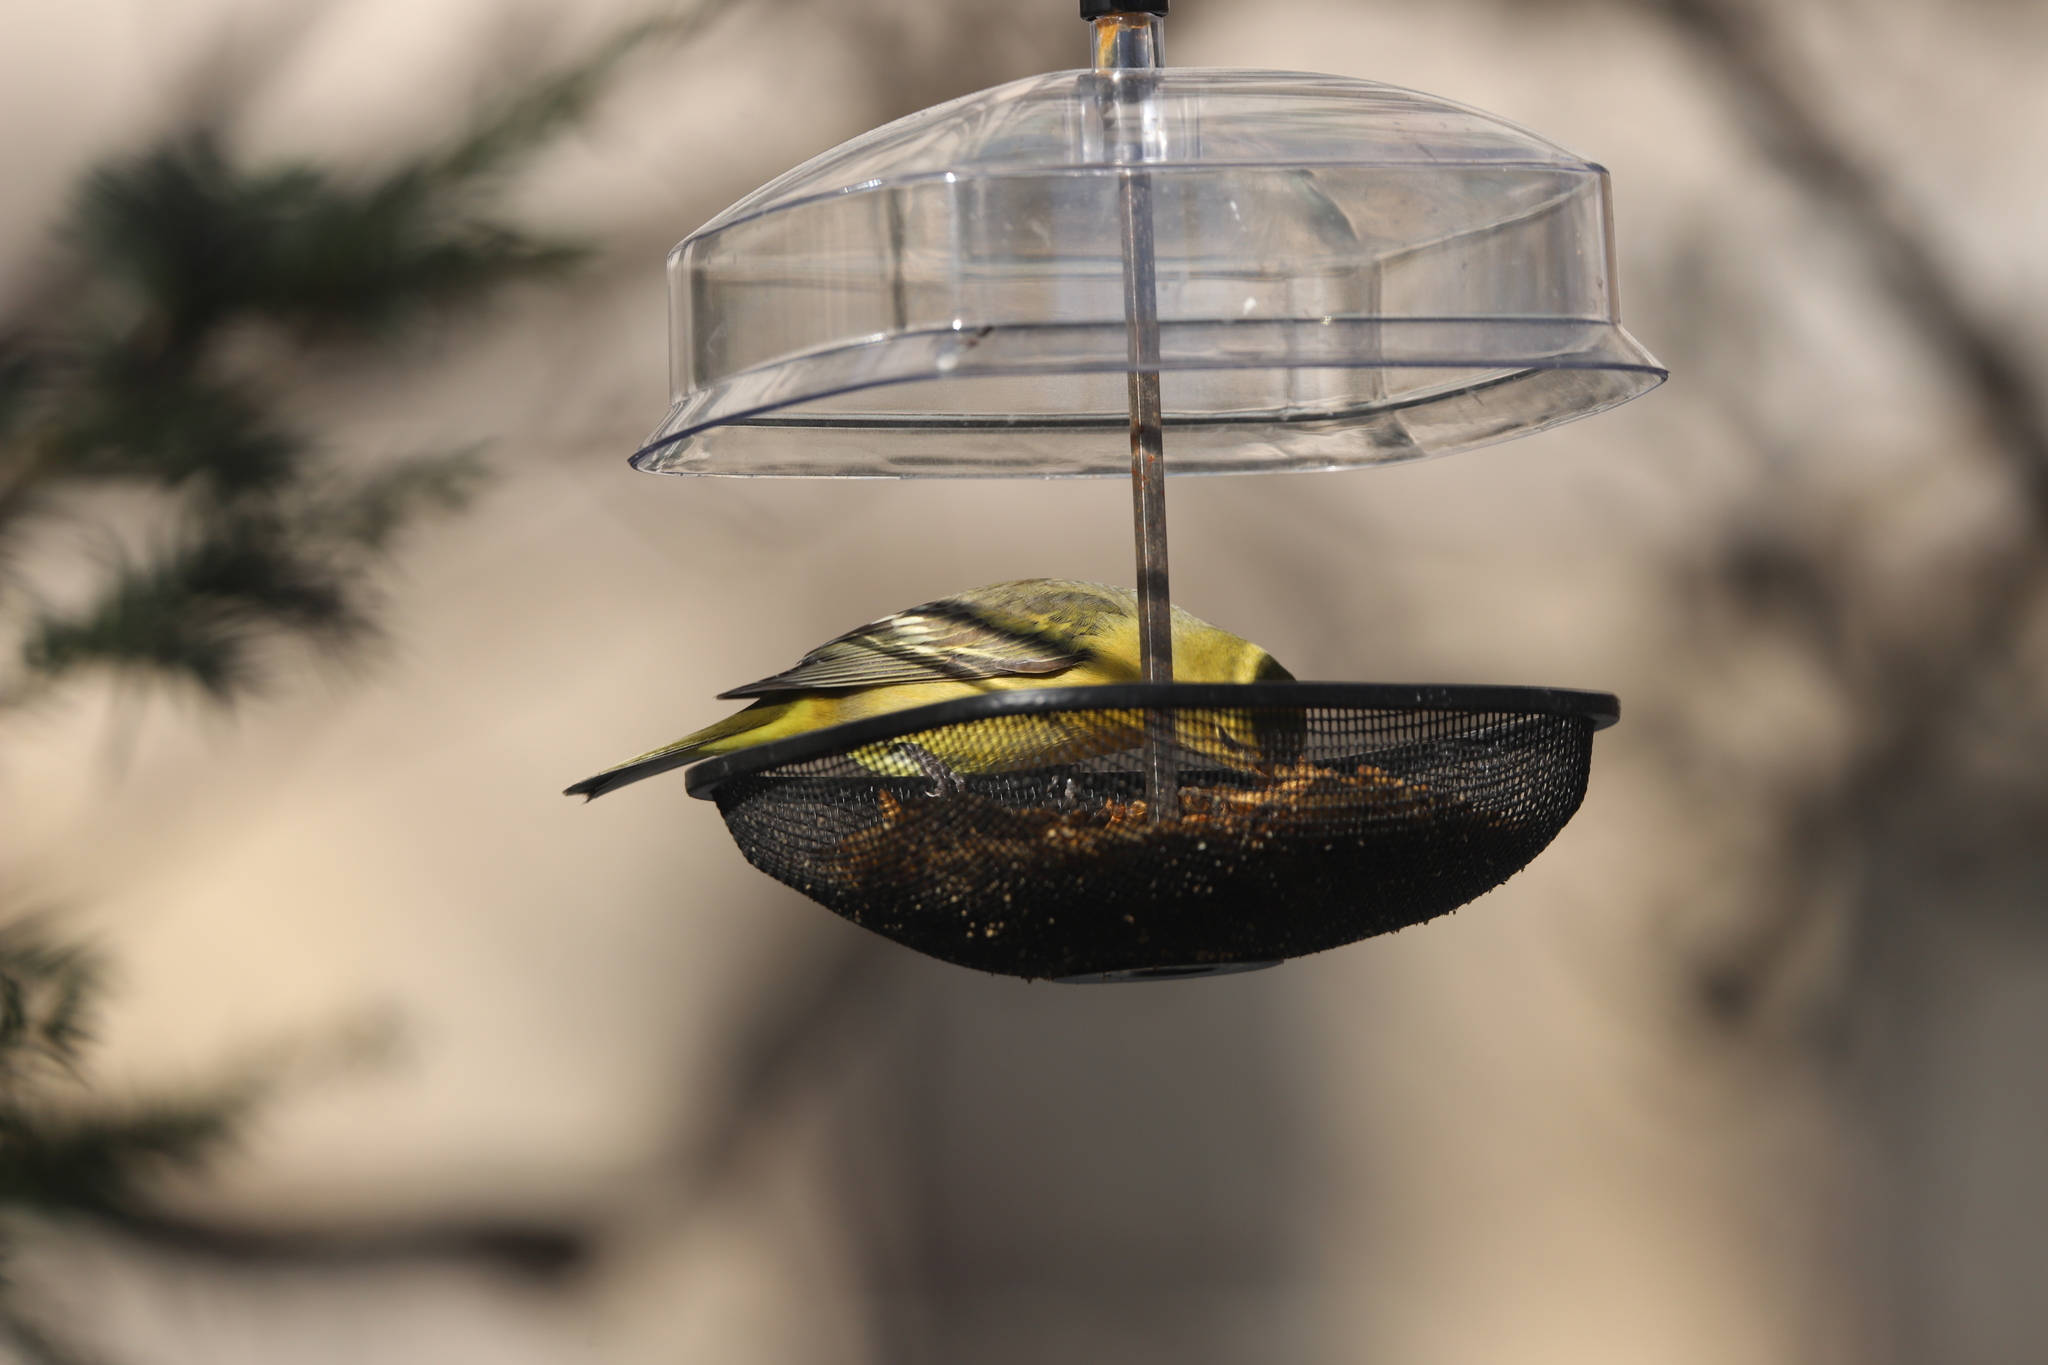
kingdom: Animalia
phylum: Chordata
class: Aves
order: Passeriformes
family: Cardinalidae
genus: Piranga
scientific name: Piranga ludoviciana
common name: Western tanager
